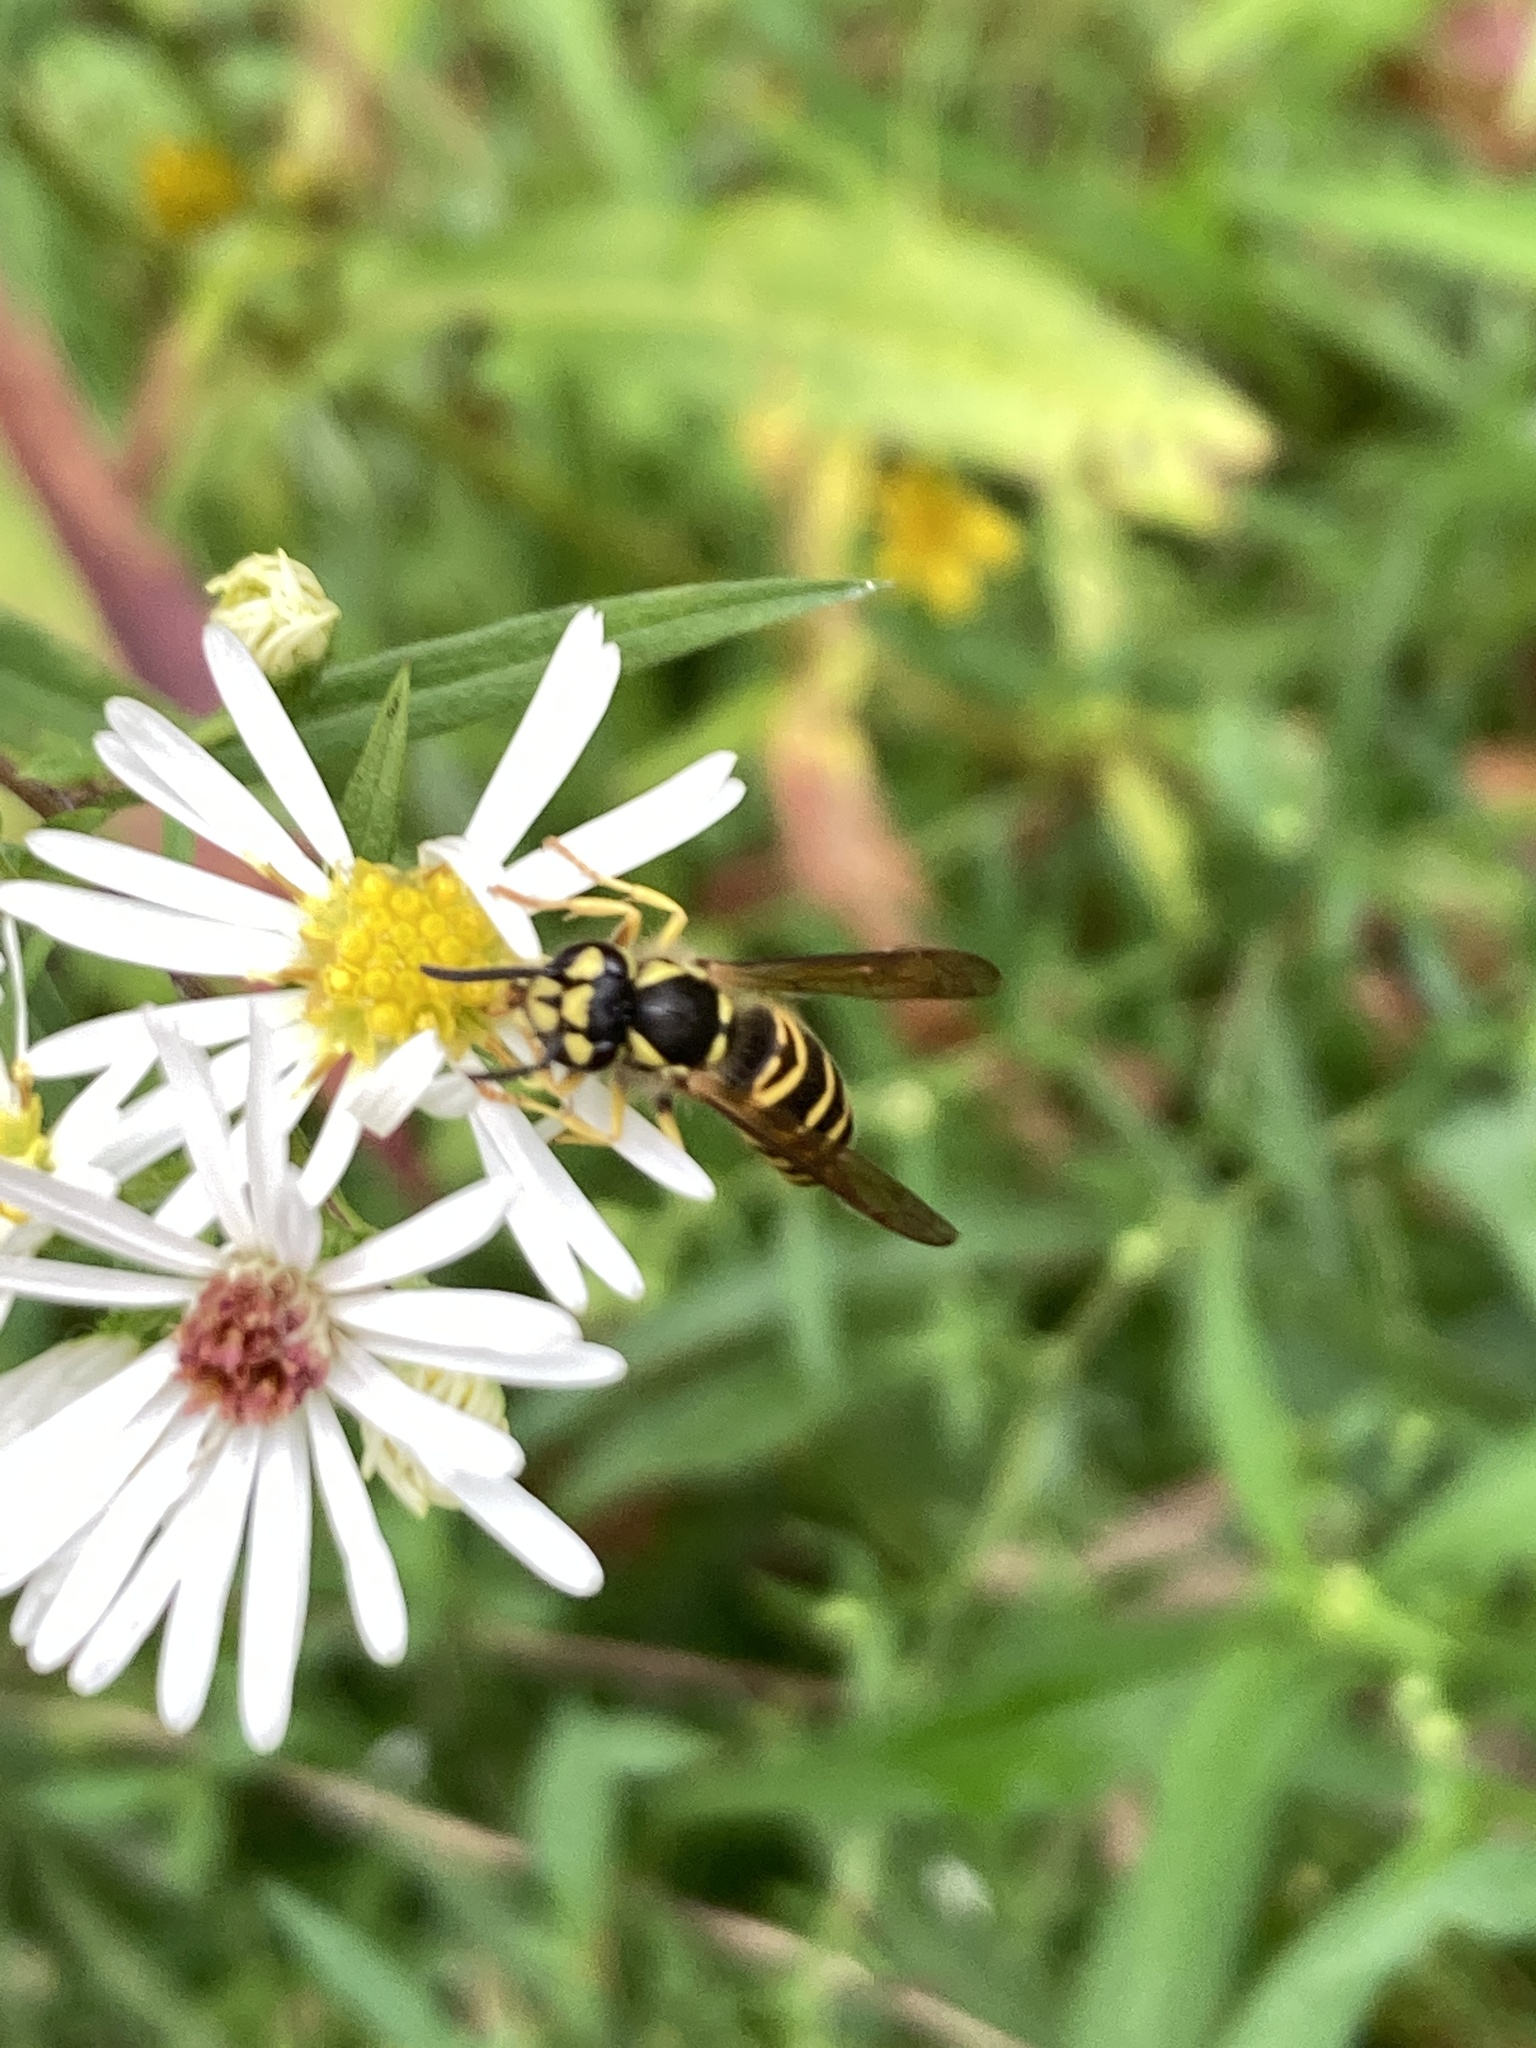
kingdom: Animalia
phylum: Arthropoda
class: Insecta
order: Hymenoptera
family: Vespidae
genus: Vespula
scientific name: Vespula maculifrons
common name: Eastern yellowjacket
